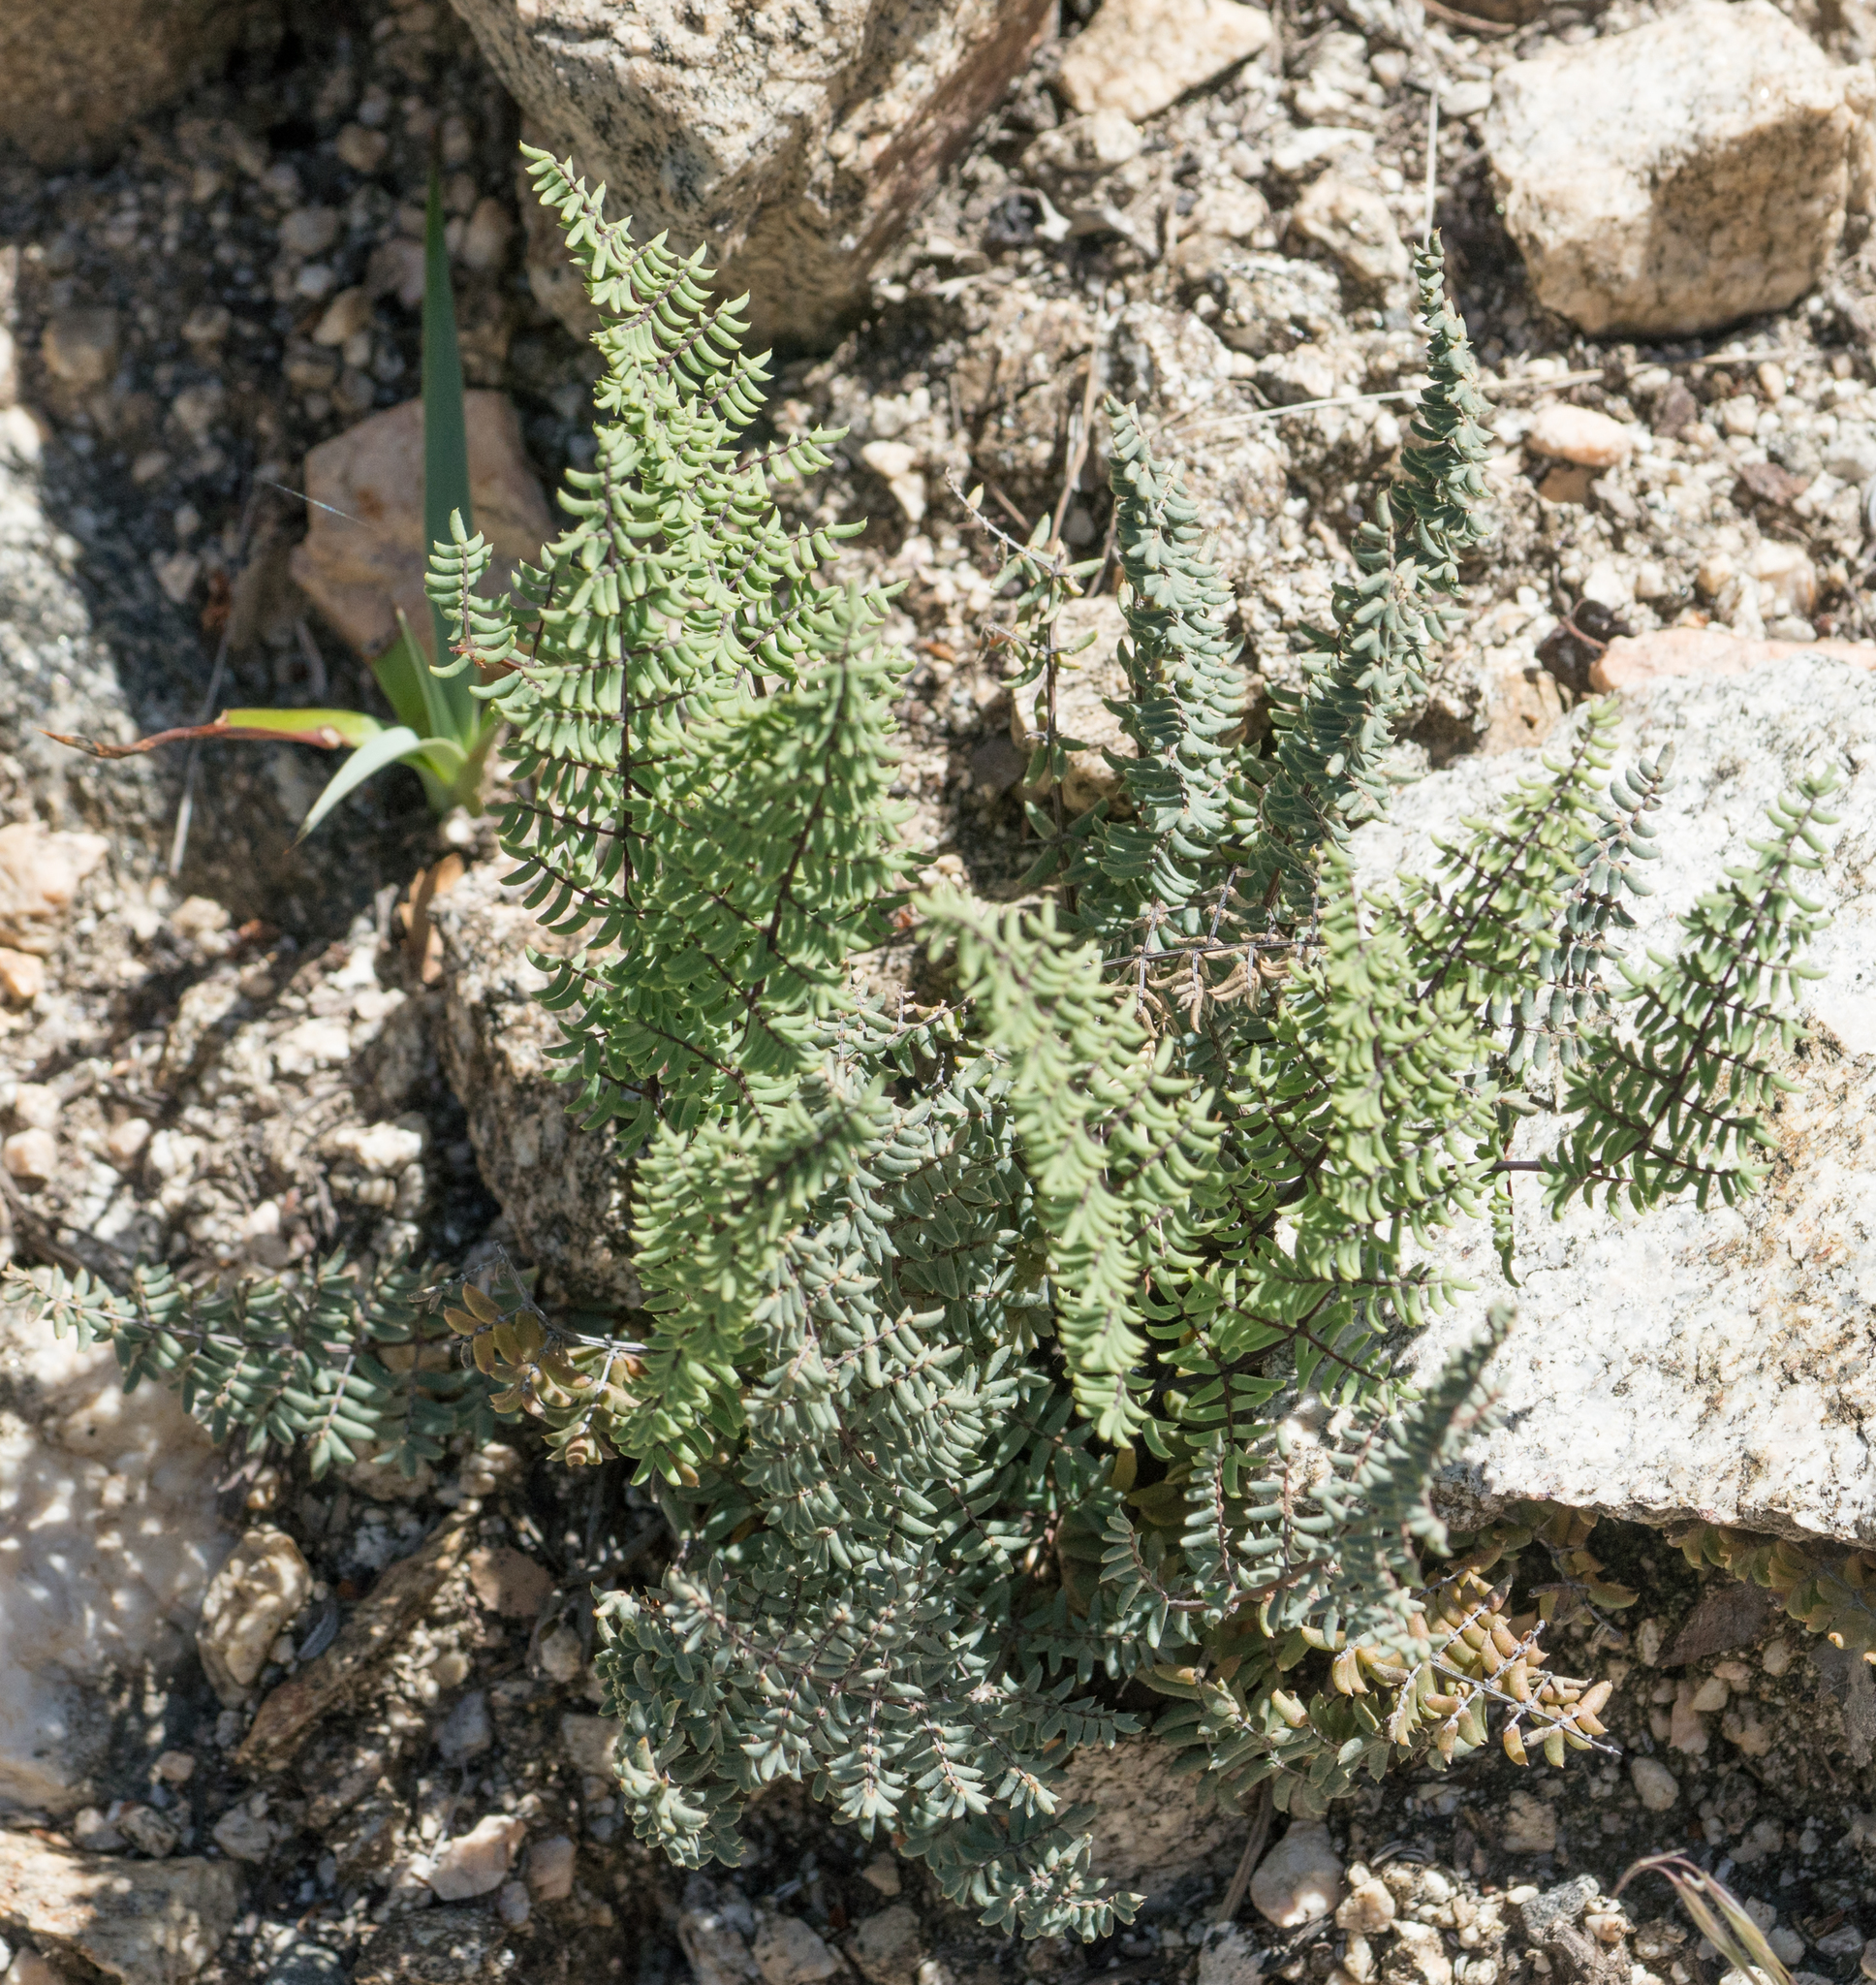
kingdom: Plantae
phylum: Tracheophyta
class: Polypodiopsida
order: Polypodiales
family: Pteridaceae
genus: Pellaea
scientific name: Pellaea mucronata
